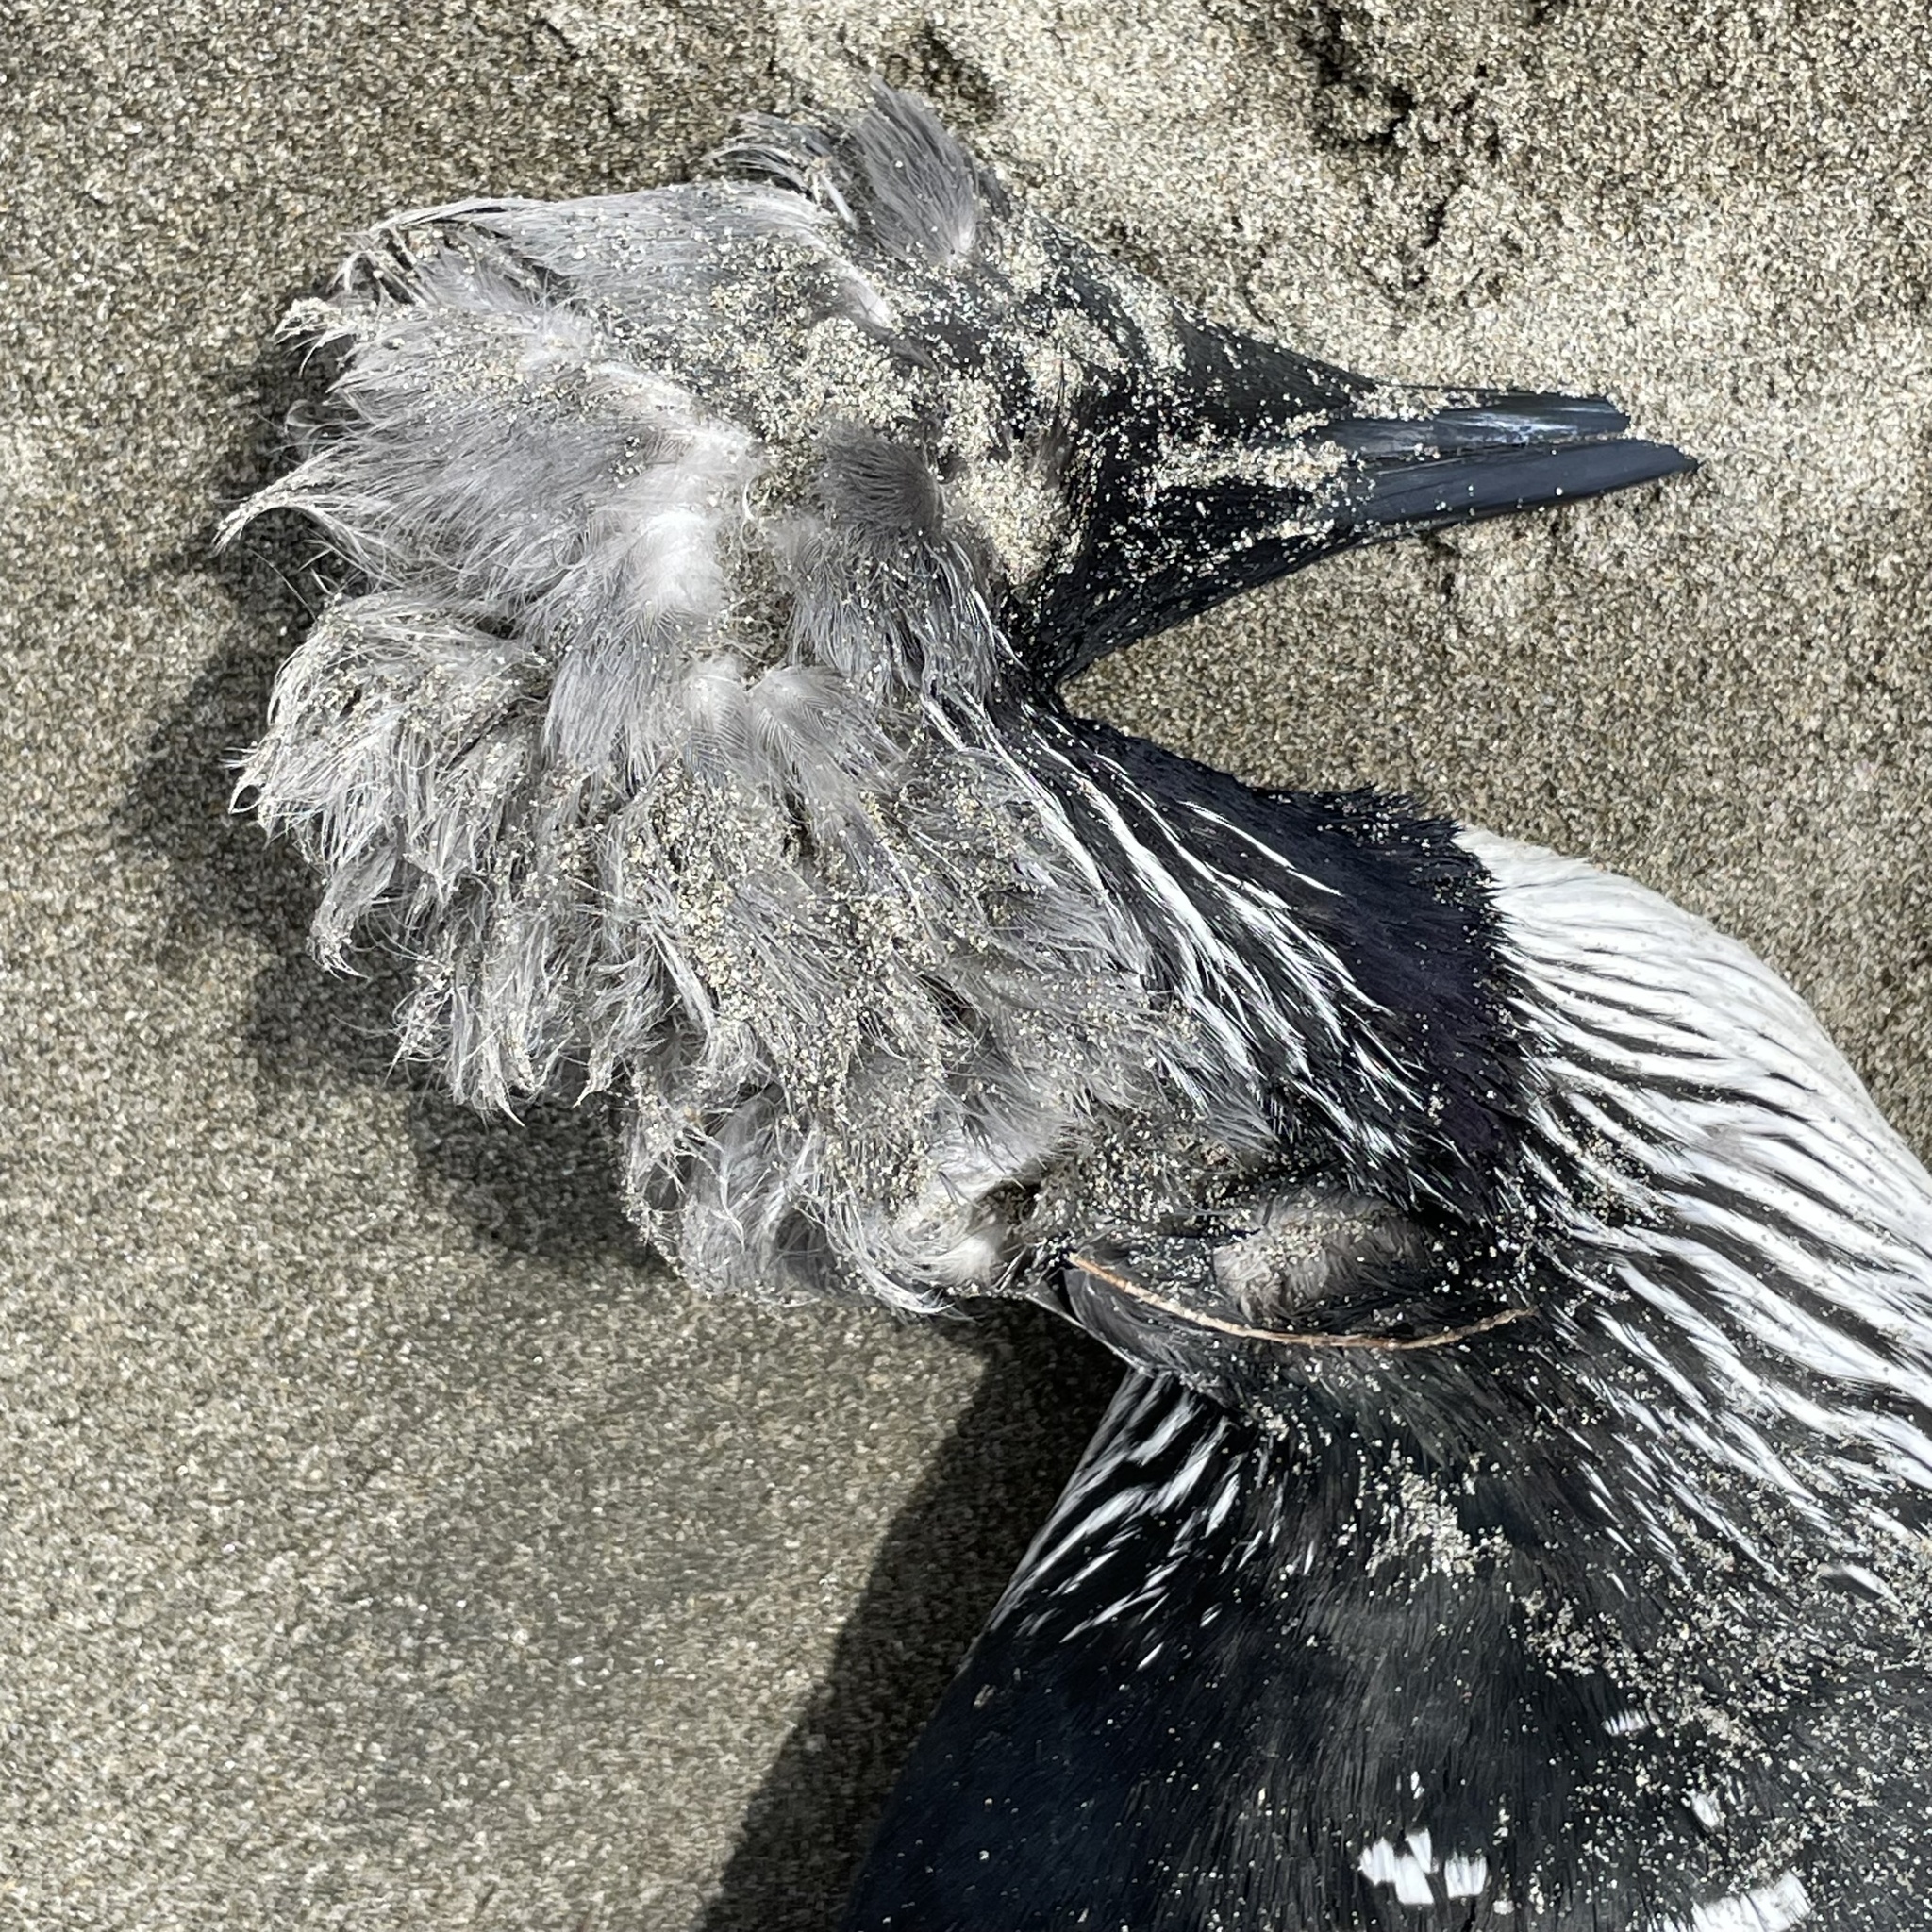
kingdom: Animalia
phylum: Chordata
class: Aves
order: Gaviiformes
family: Gaviidae
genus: Gavia
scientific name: Gavia pacifica
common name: Pacific loon
